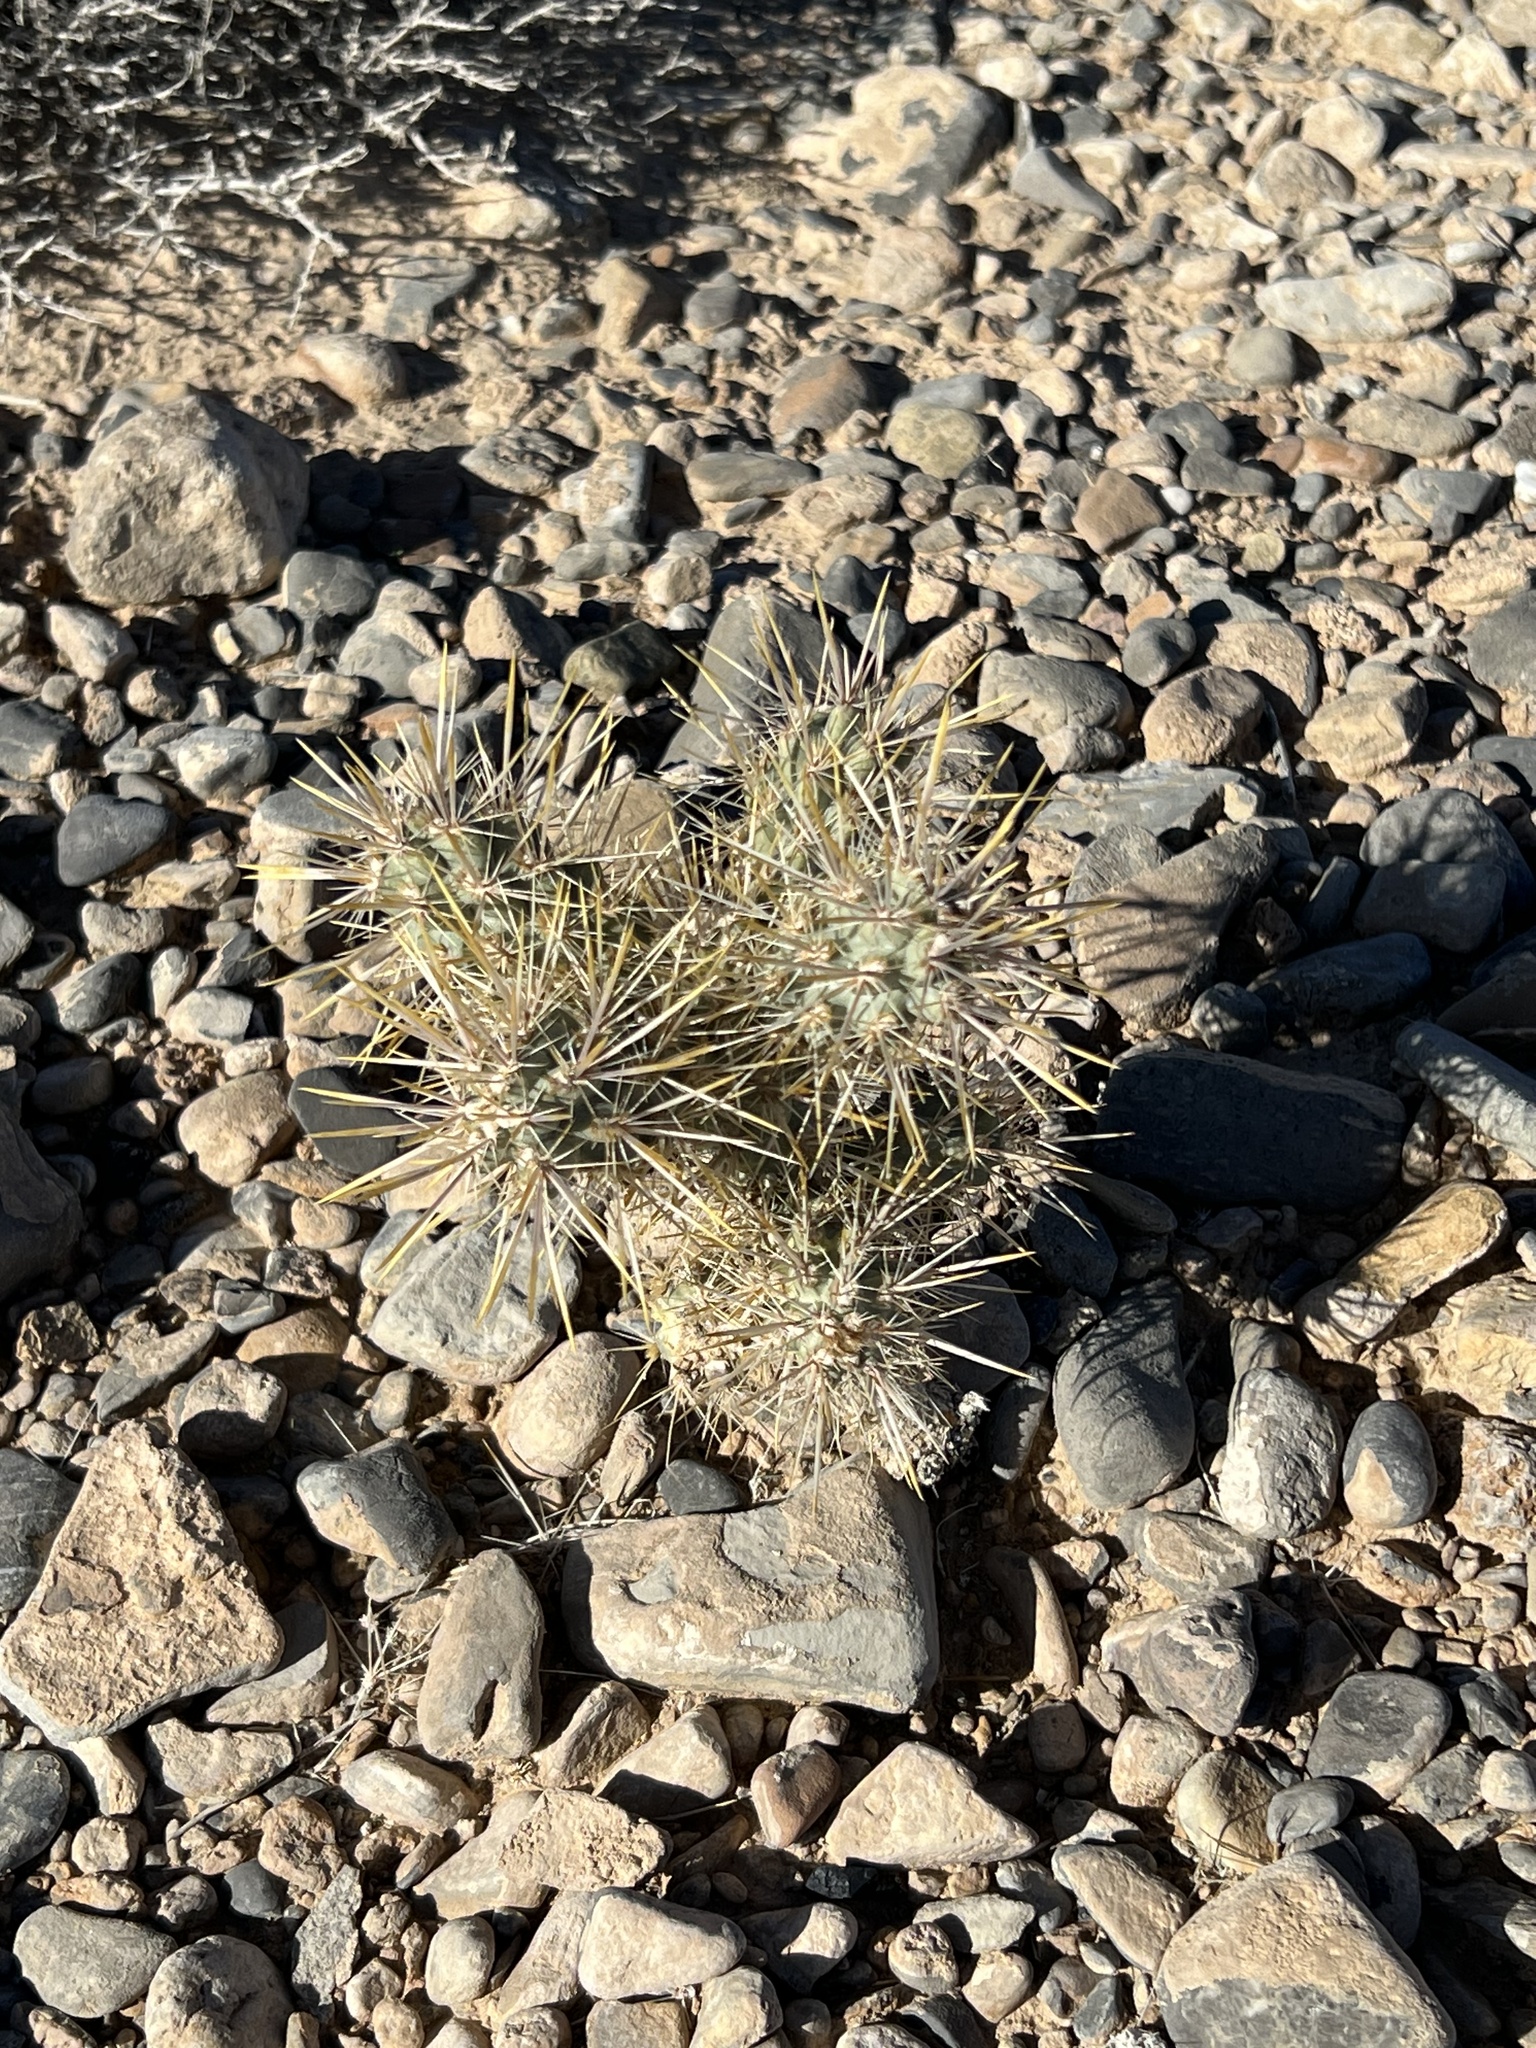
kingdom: Plantae
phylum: Tracheophyta
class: Magnoliopsida
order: Caryophyllales
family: Cactaceae
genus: Cylindropuntia
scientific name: Cylindropuntia echinocarpa
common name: Ground cholla
